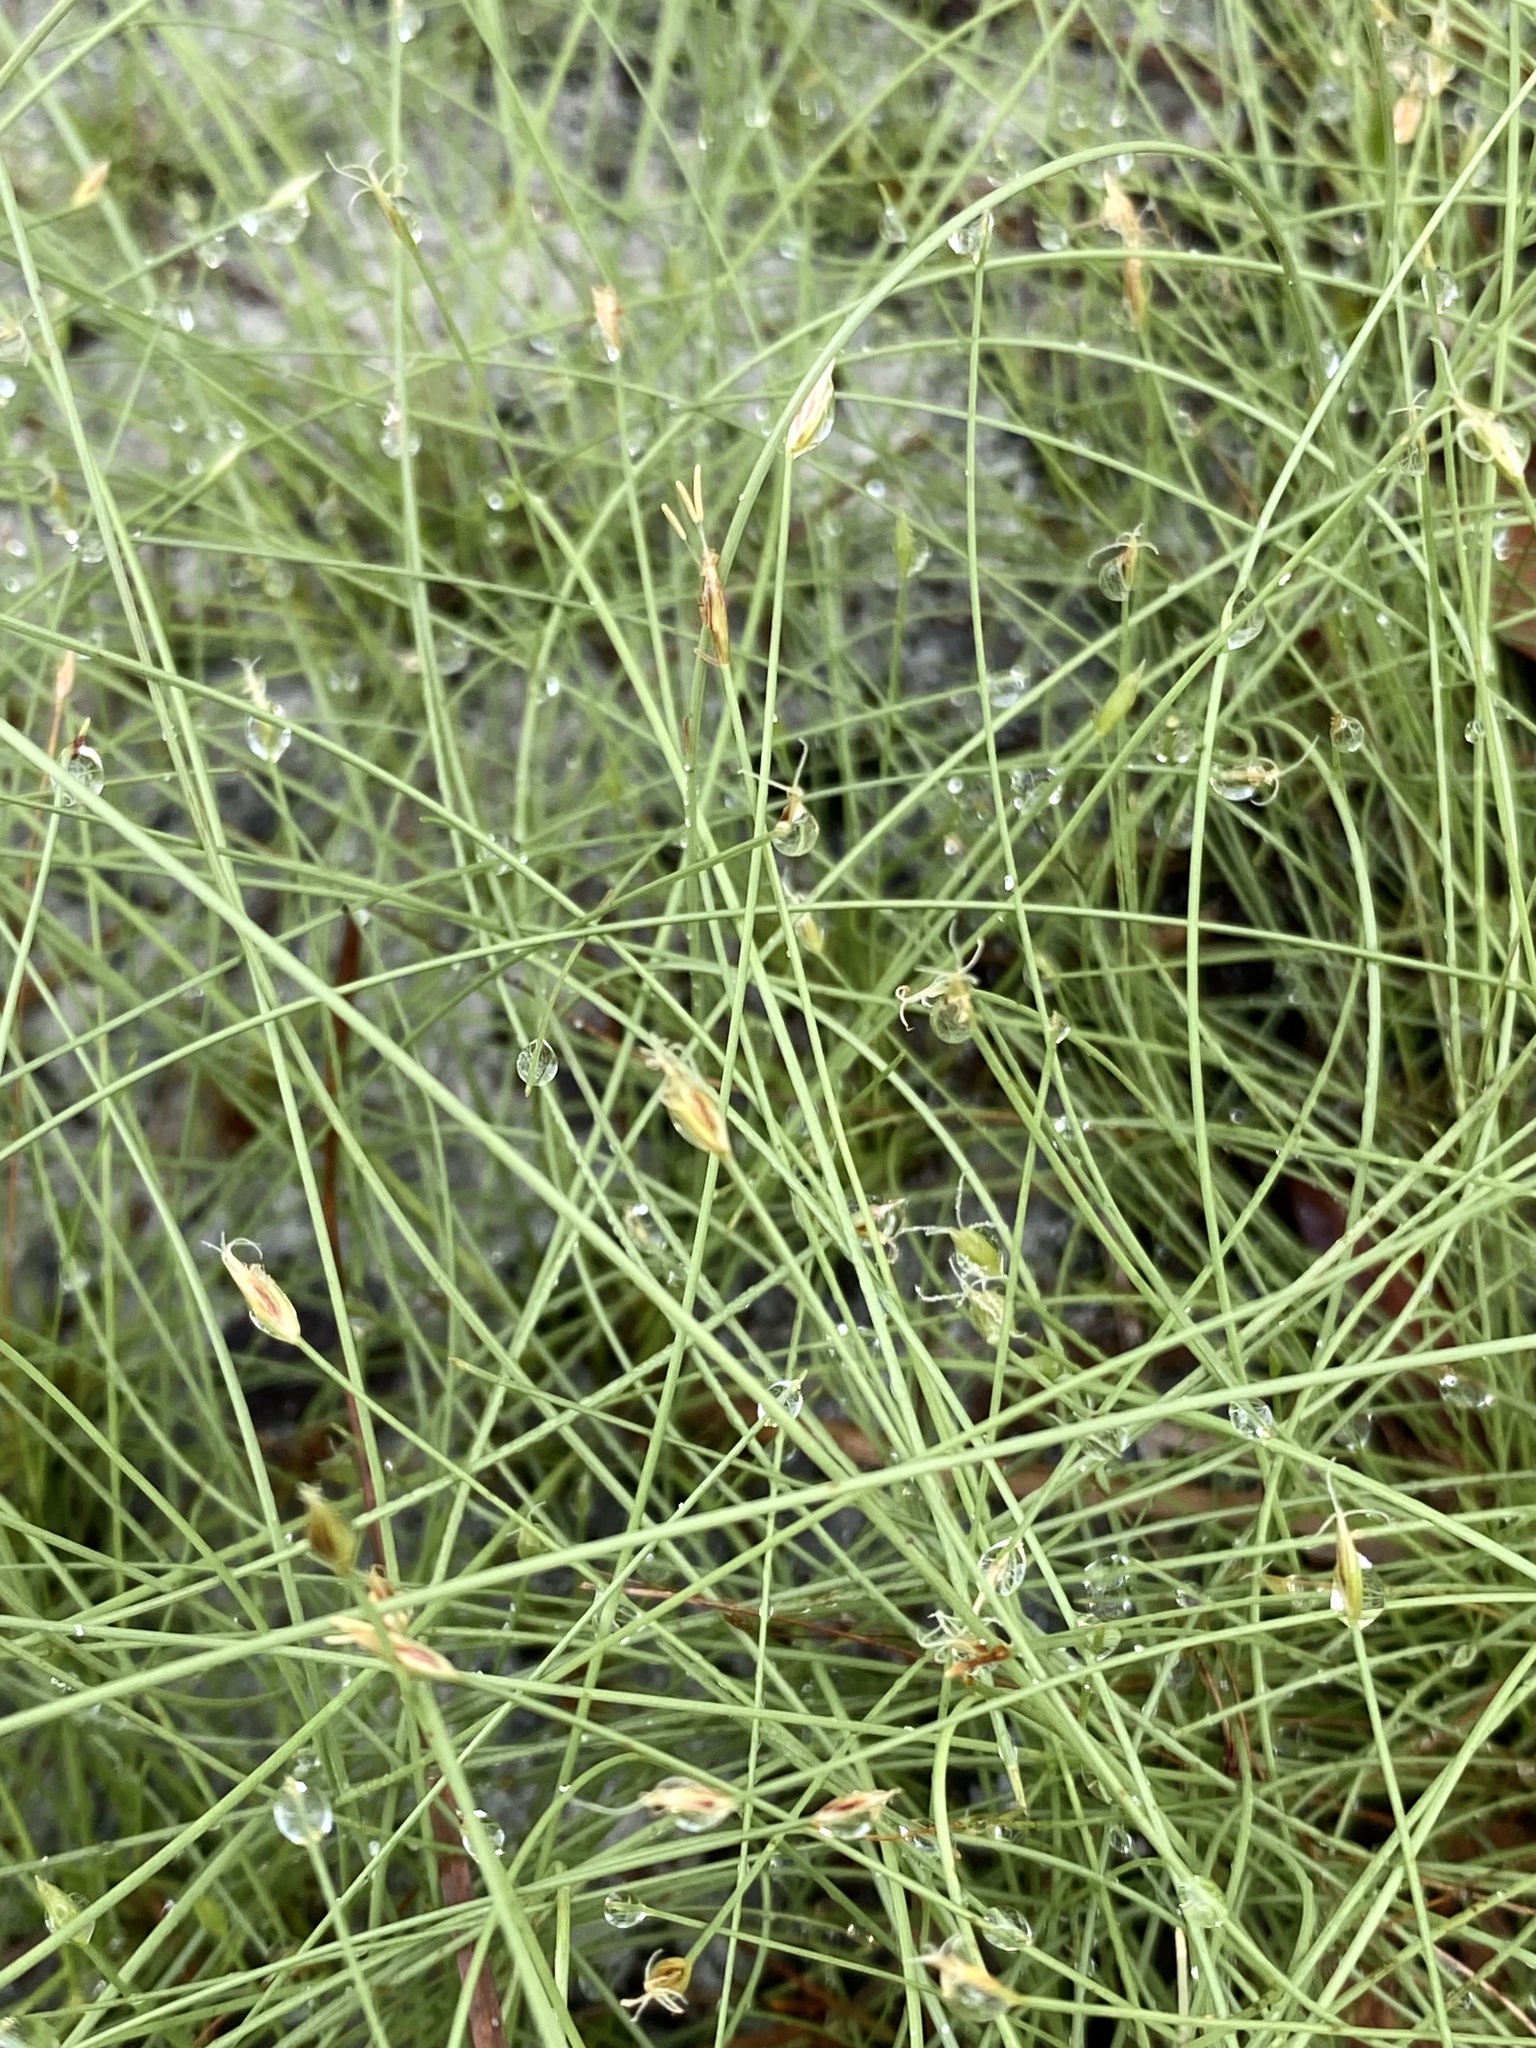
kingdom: Plantae
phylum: Tracheophyta
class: Liliopsida
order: Poales
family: Cyperaceae
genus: Eleocharis
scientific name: Eleocharis baldwinii
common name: Baldwin's spike-rush
